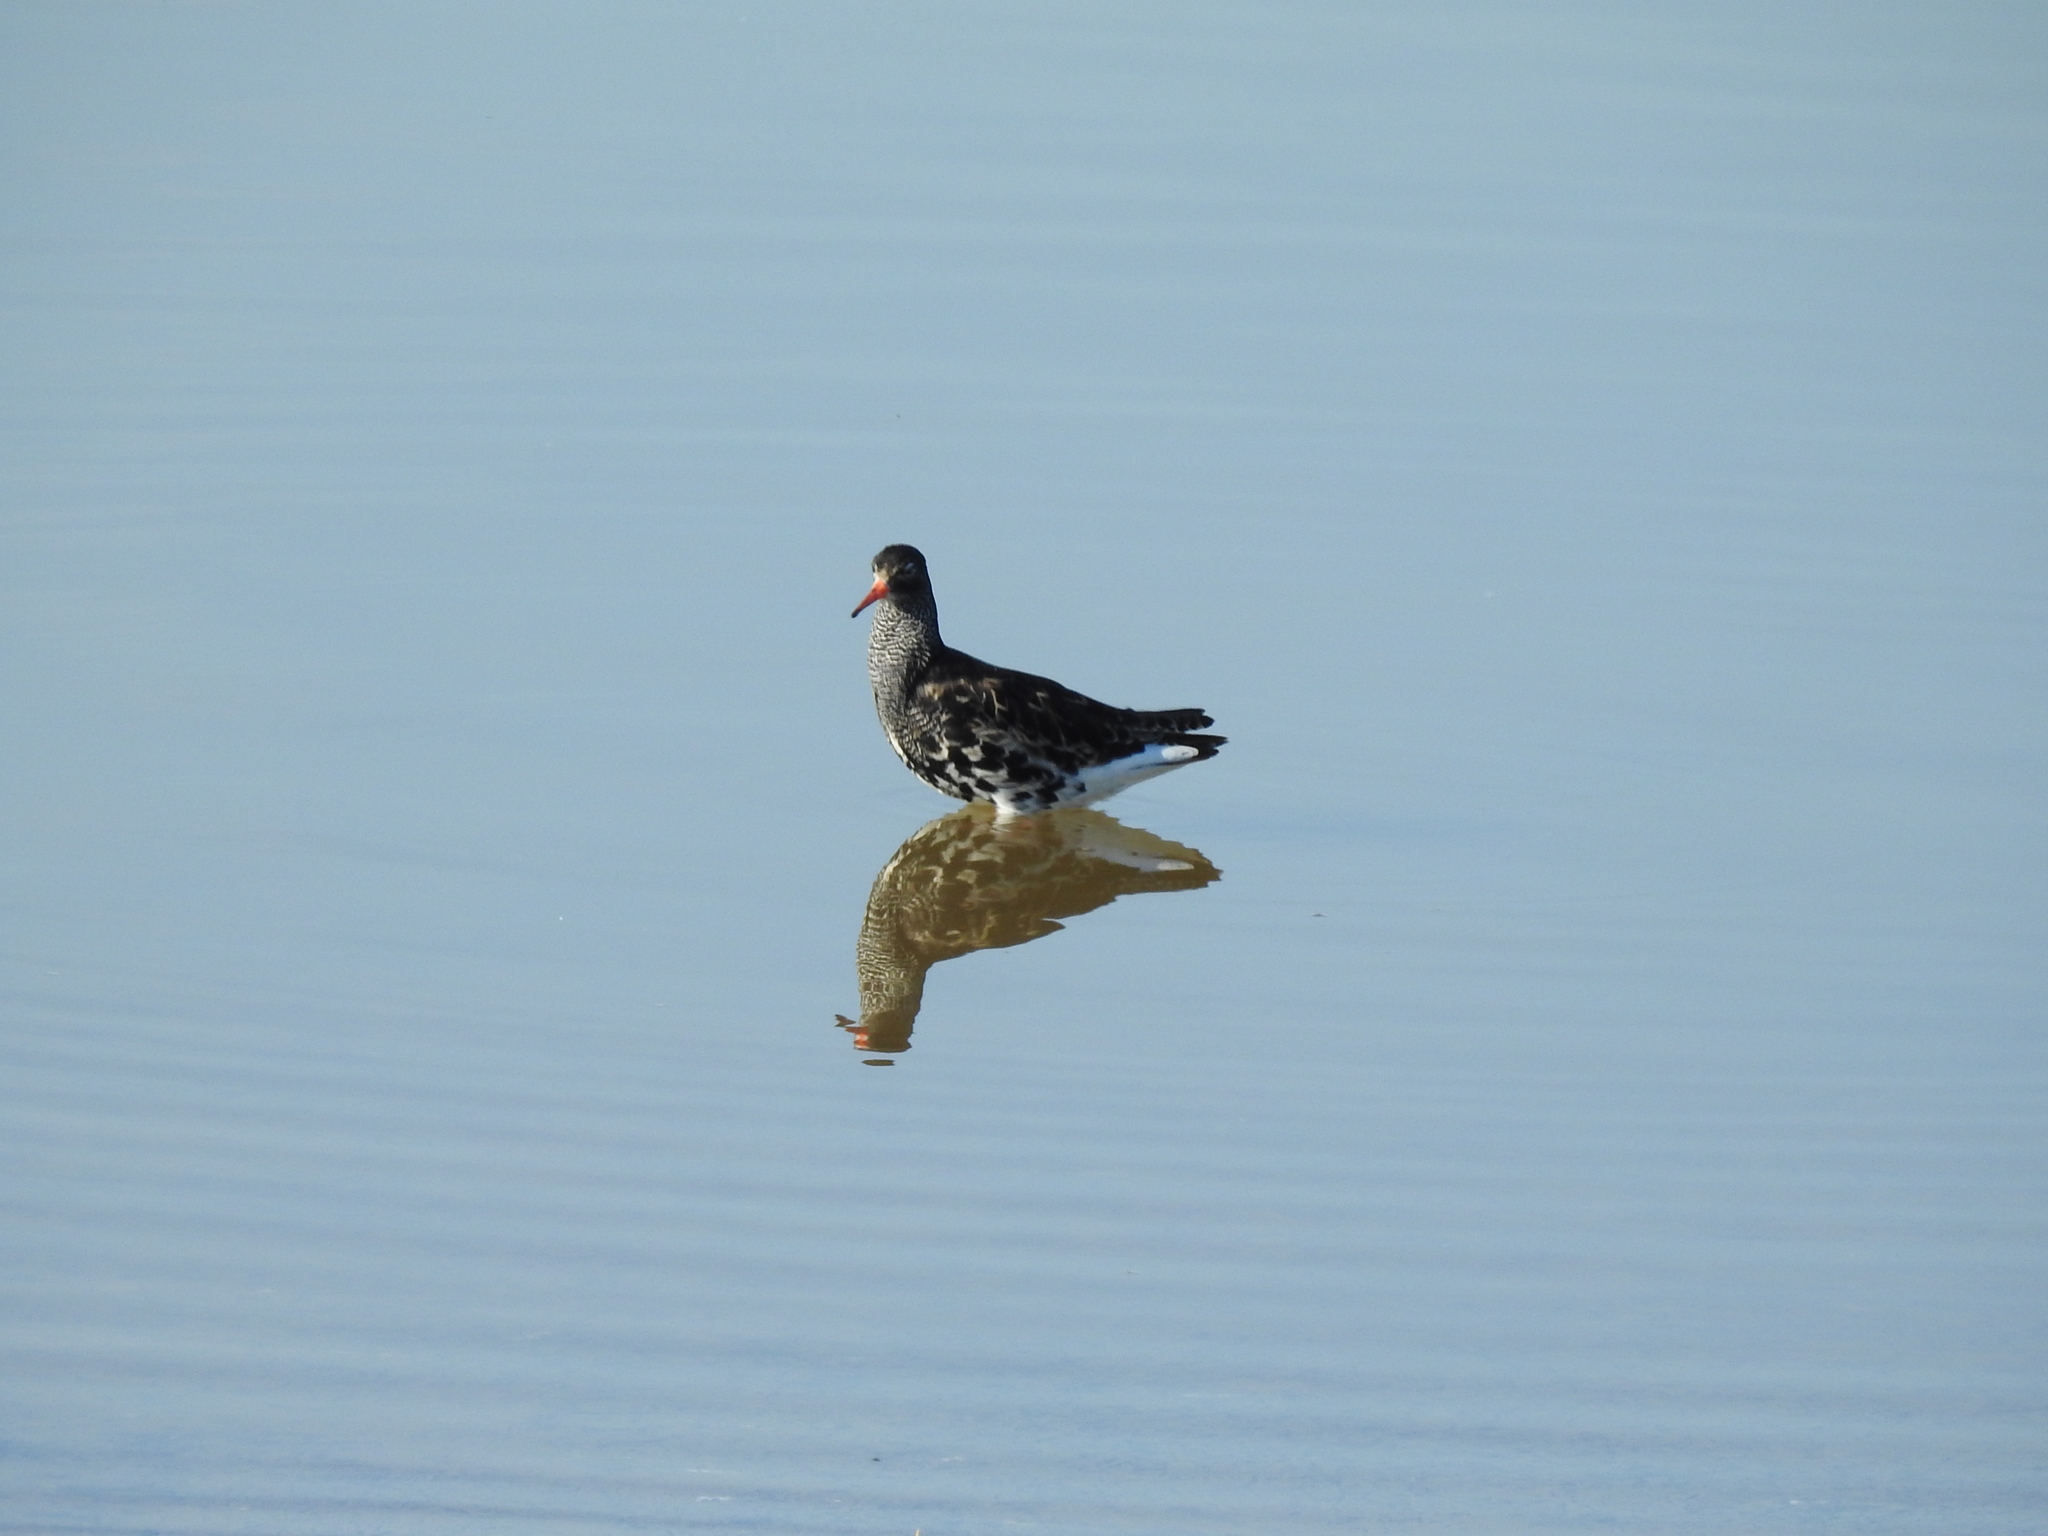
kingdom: Animalia
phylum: Chordata
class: Aves
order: Charadriiformes
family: Scolopacidae
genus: Calidris
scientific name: Calidris pugnax
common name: Ruff
